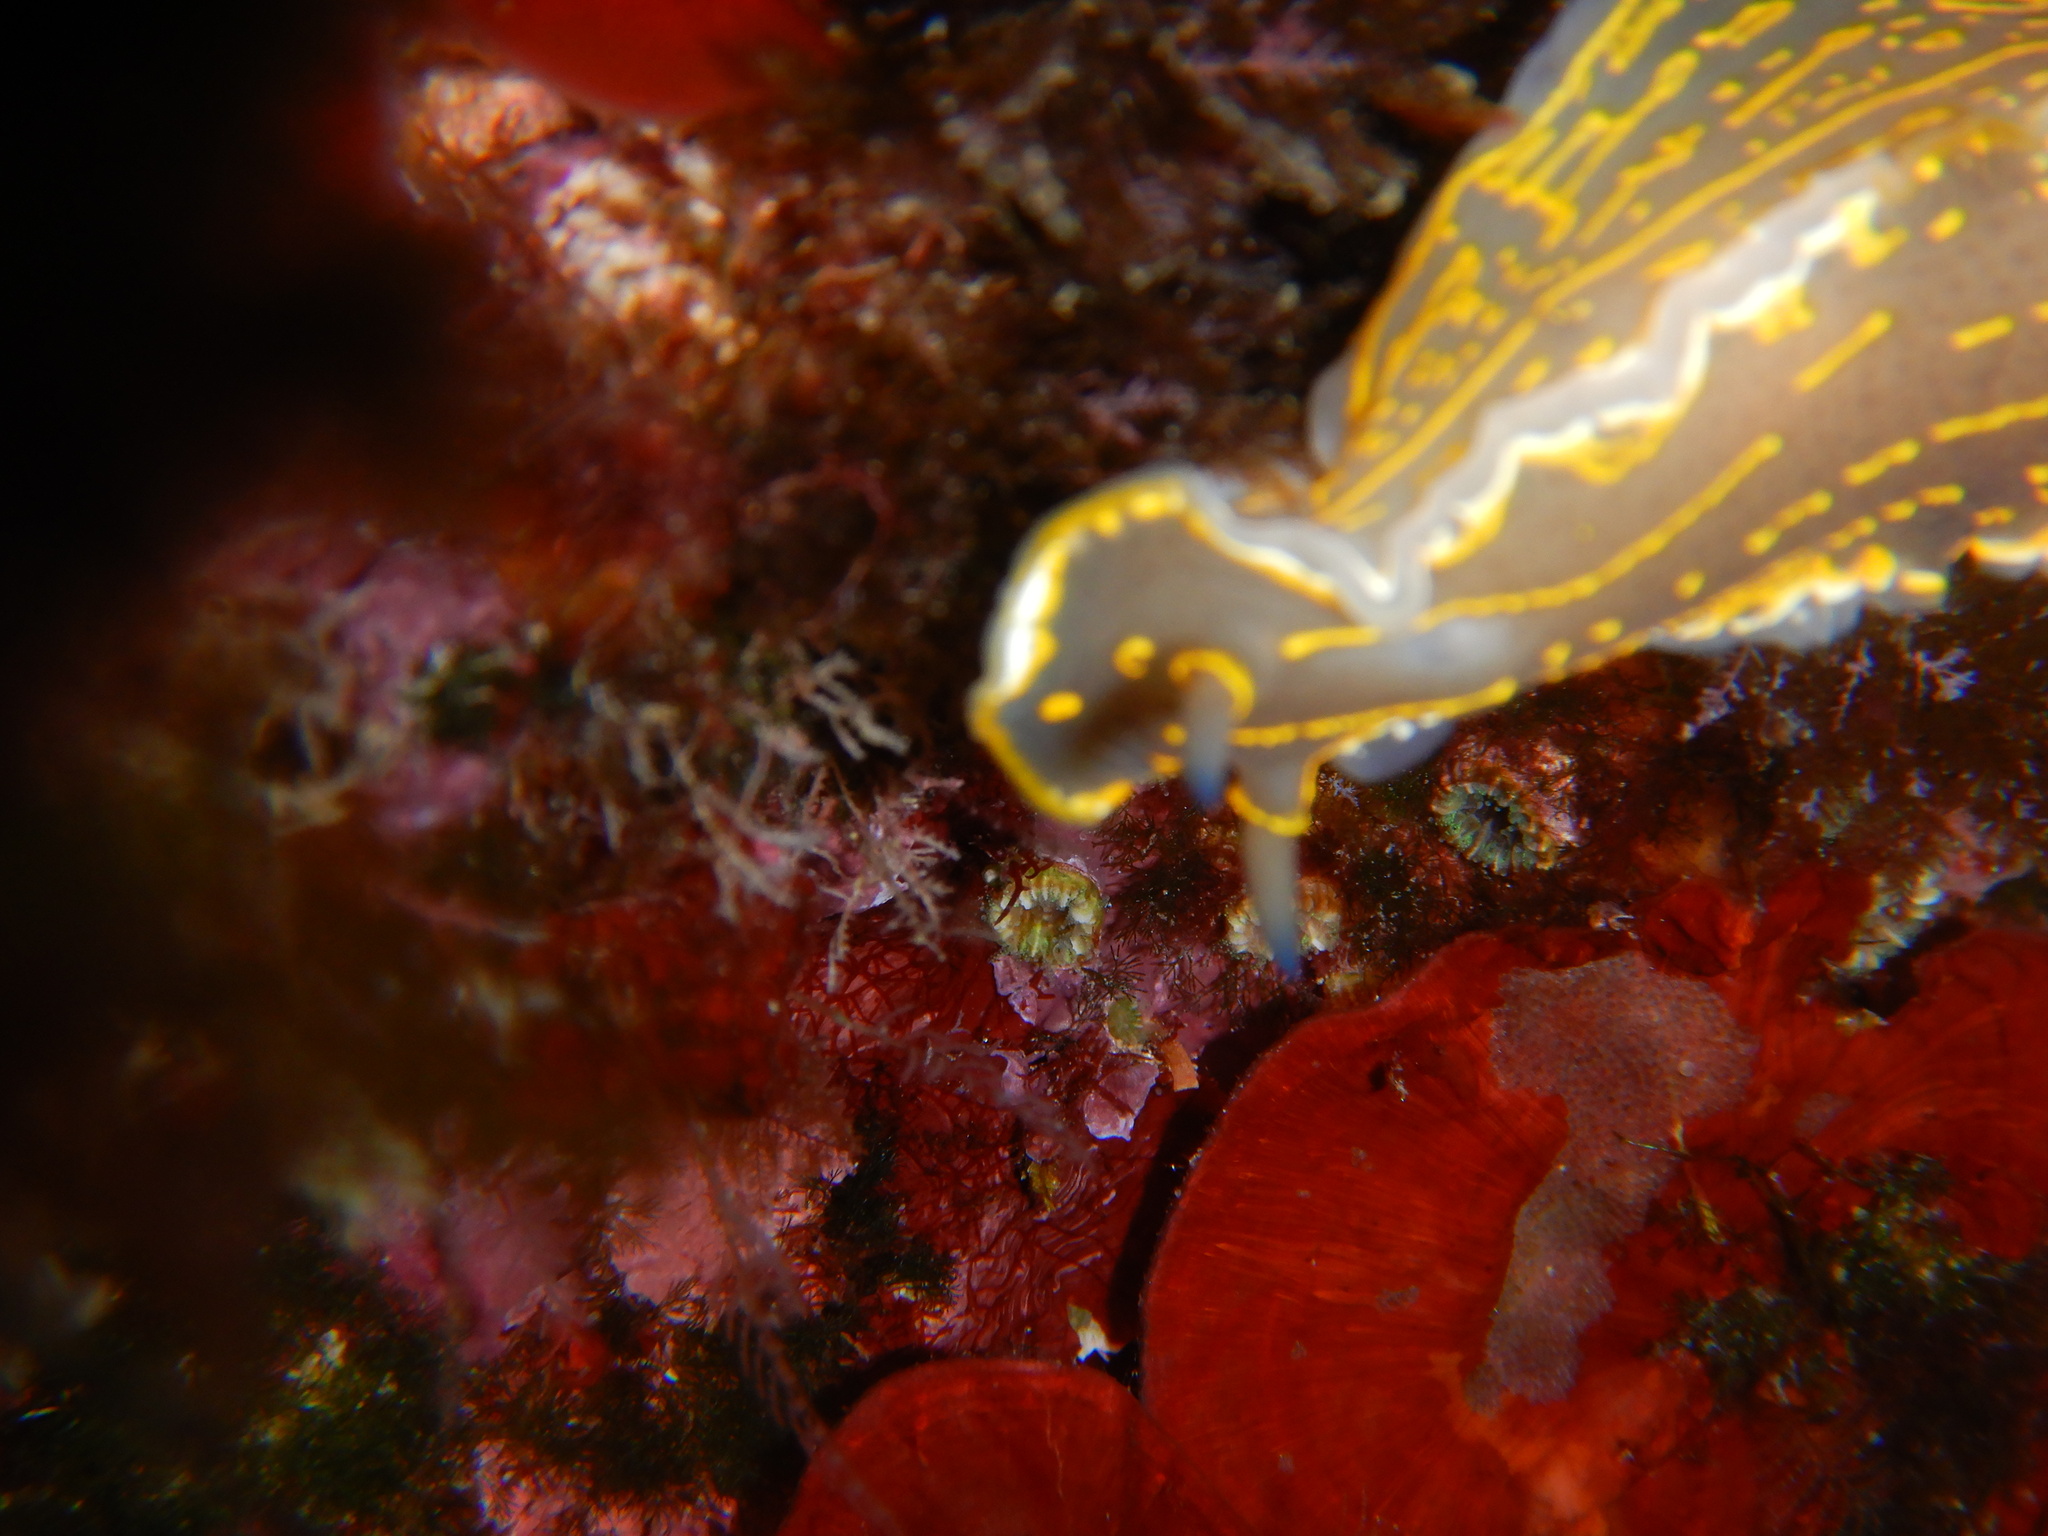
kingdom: Animalia
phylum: Mollusca
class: Gastropoda
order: Nudibranchia
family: Chromodorididae
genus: Felimare
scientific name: Felimare picta
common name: Giant doris
